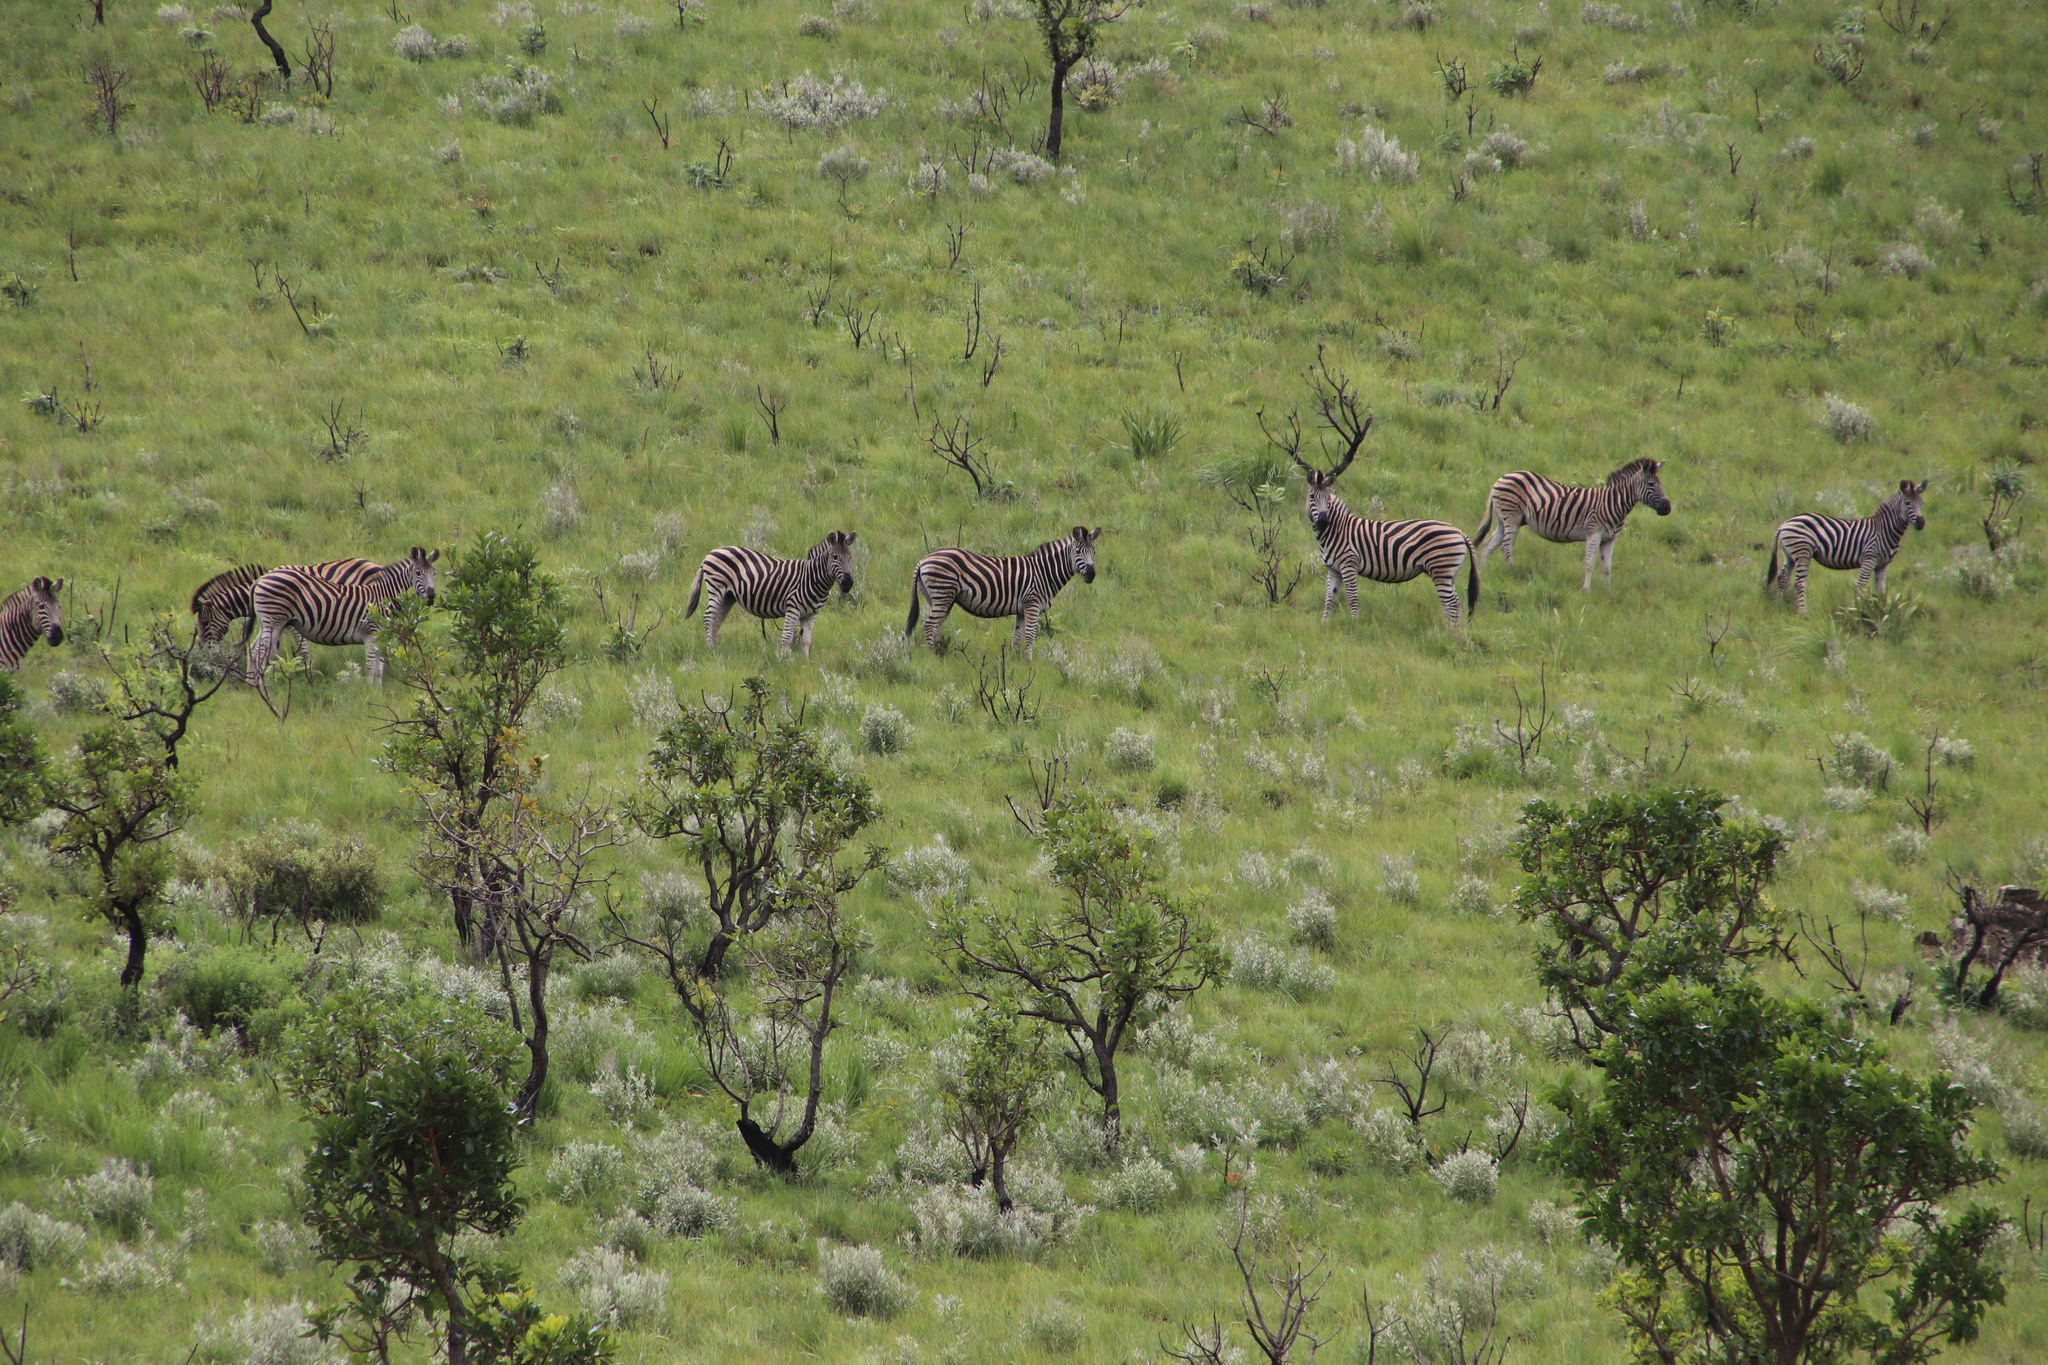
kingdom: Animalia
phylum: Chordata
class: Mammalia
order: Perissodactyla
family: Equidae
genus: Equus
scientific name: Equus quagga
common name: Plains zebra
